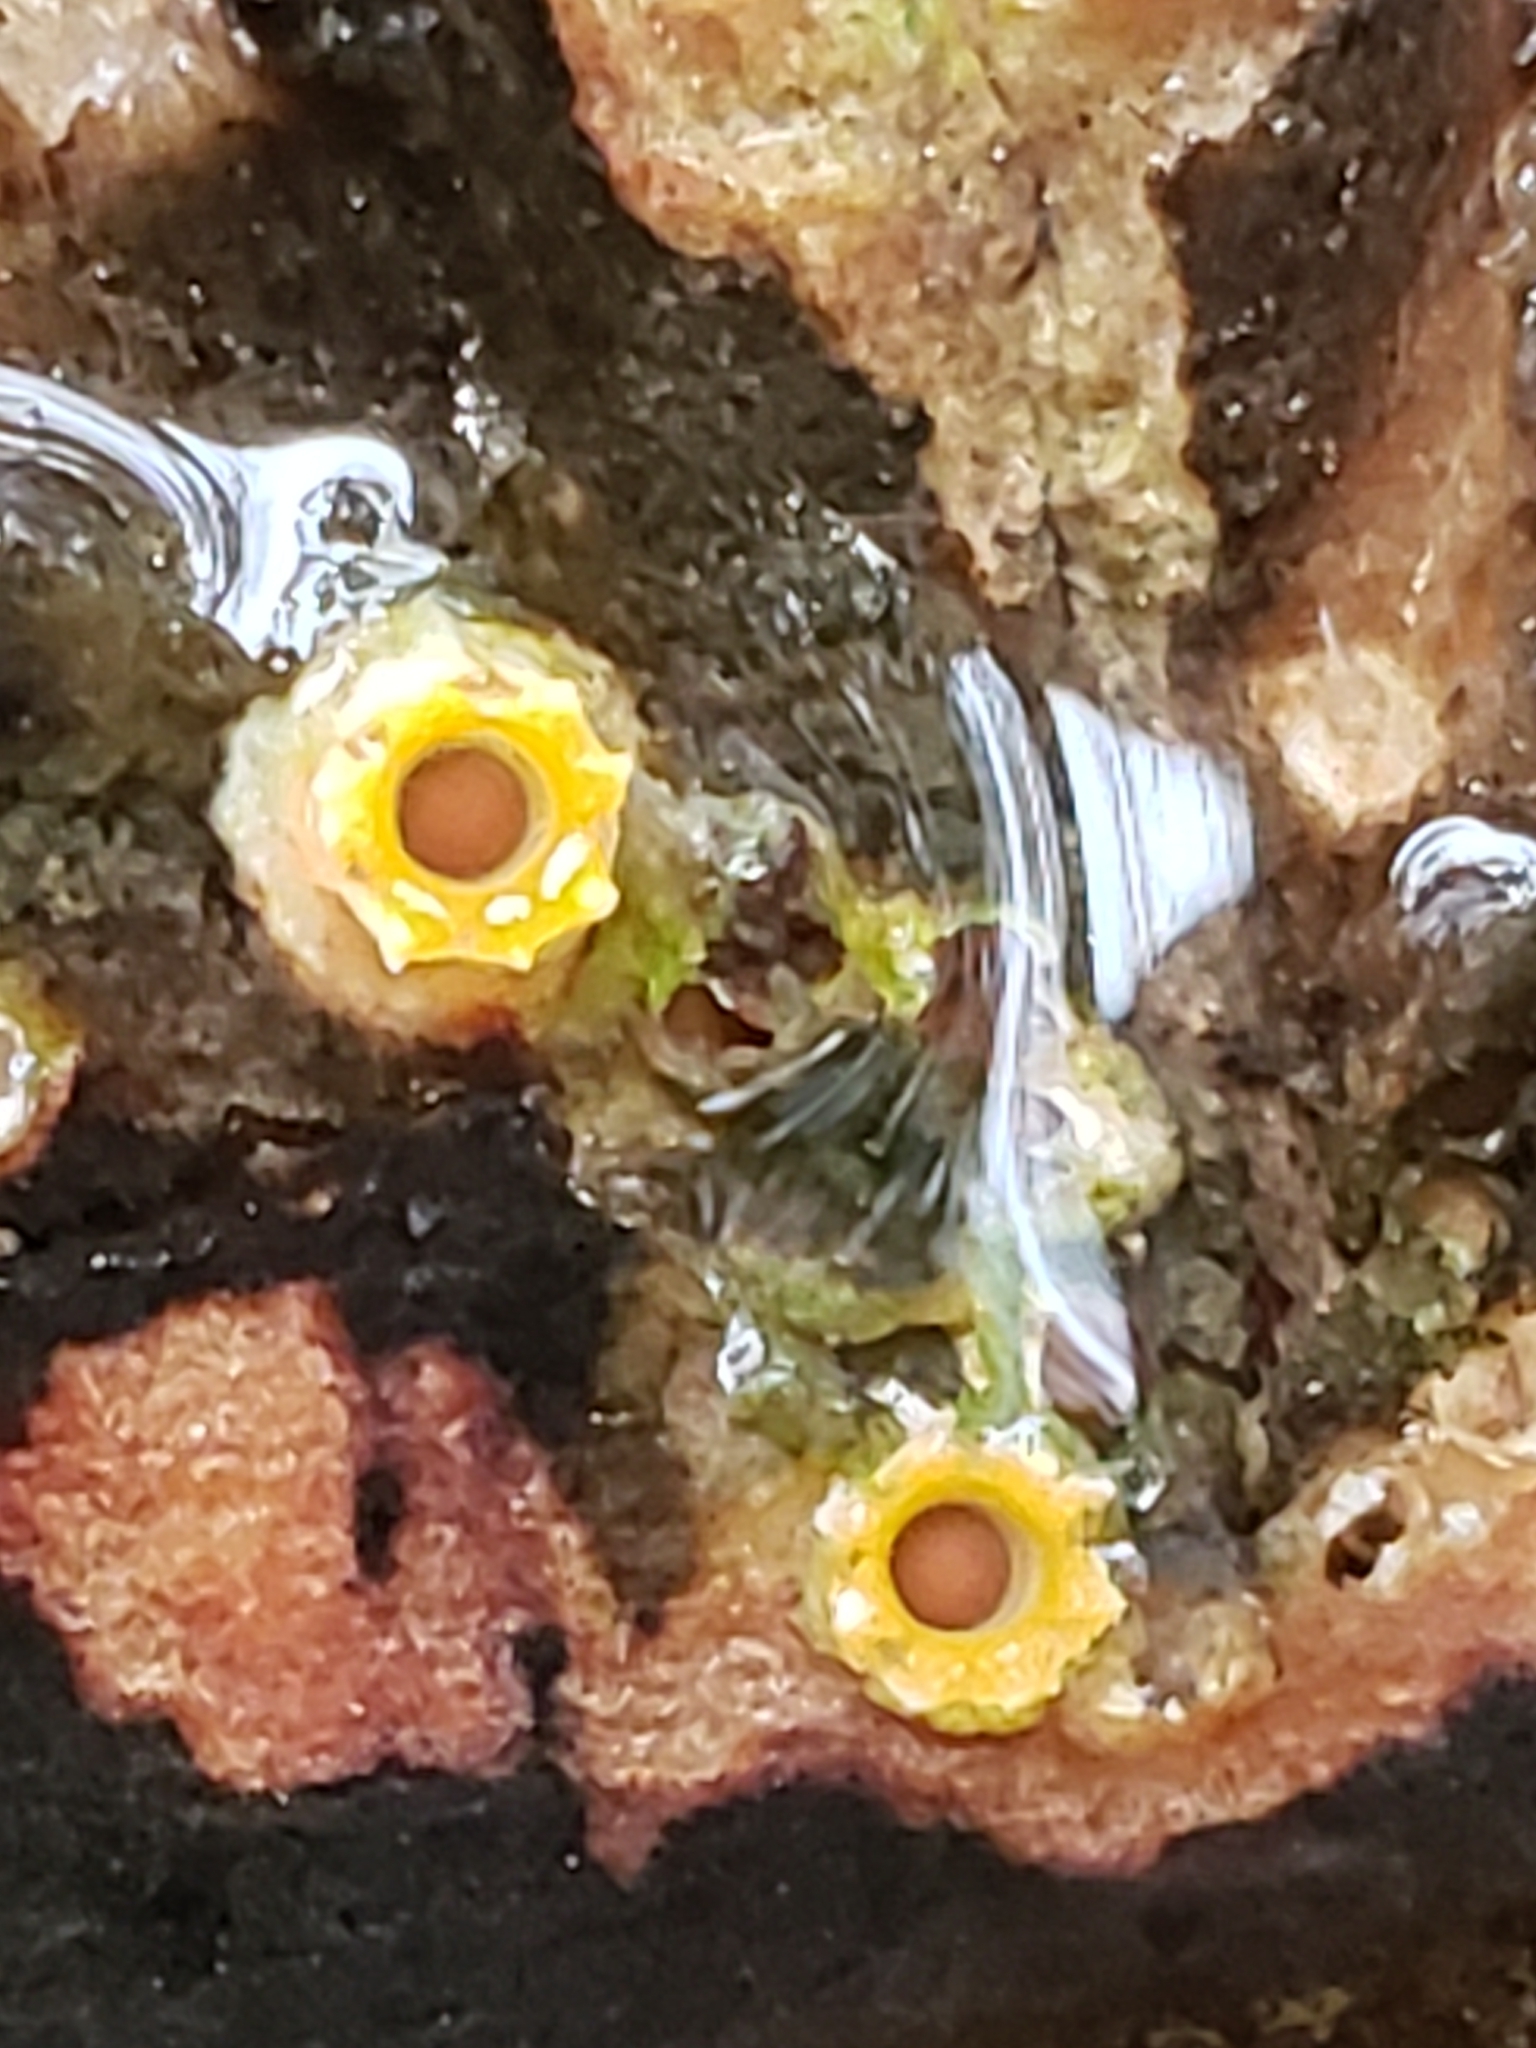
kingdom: Fungi
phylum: Basidiomycota
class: Agaricomycetes
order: Geastrales
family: Geastraceae
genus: Sphaerobolus
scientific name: Sphaerobolus stellatus
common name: Cannon fungus
